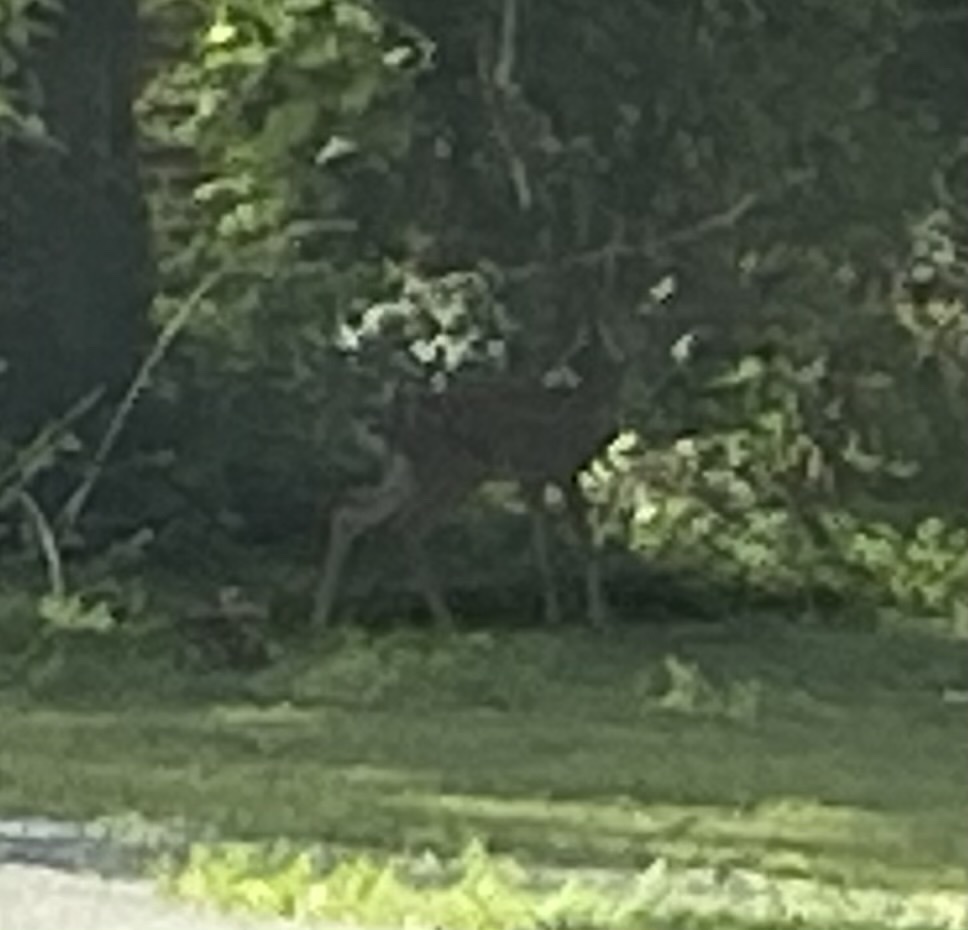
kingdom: Animalia
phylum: Chordata
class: Mammalia
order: Artiodactyla
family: Cervidae
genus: Odocoileus
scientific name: Odocoileus virginianus
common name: White-tailed deer
